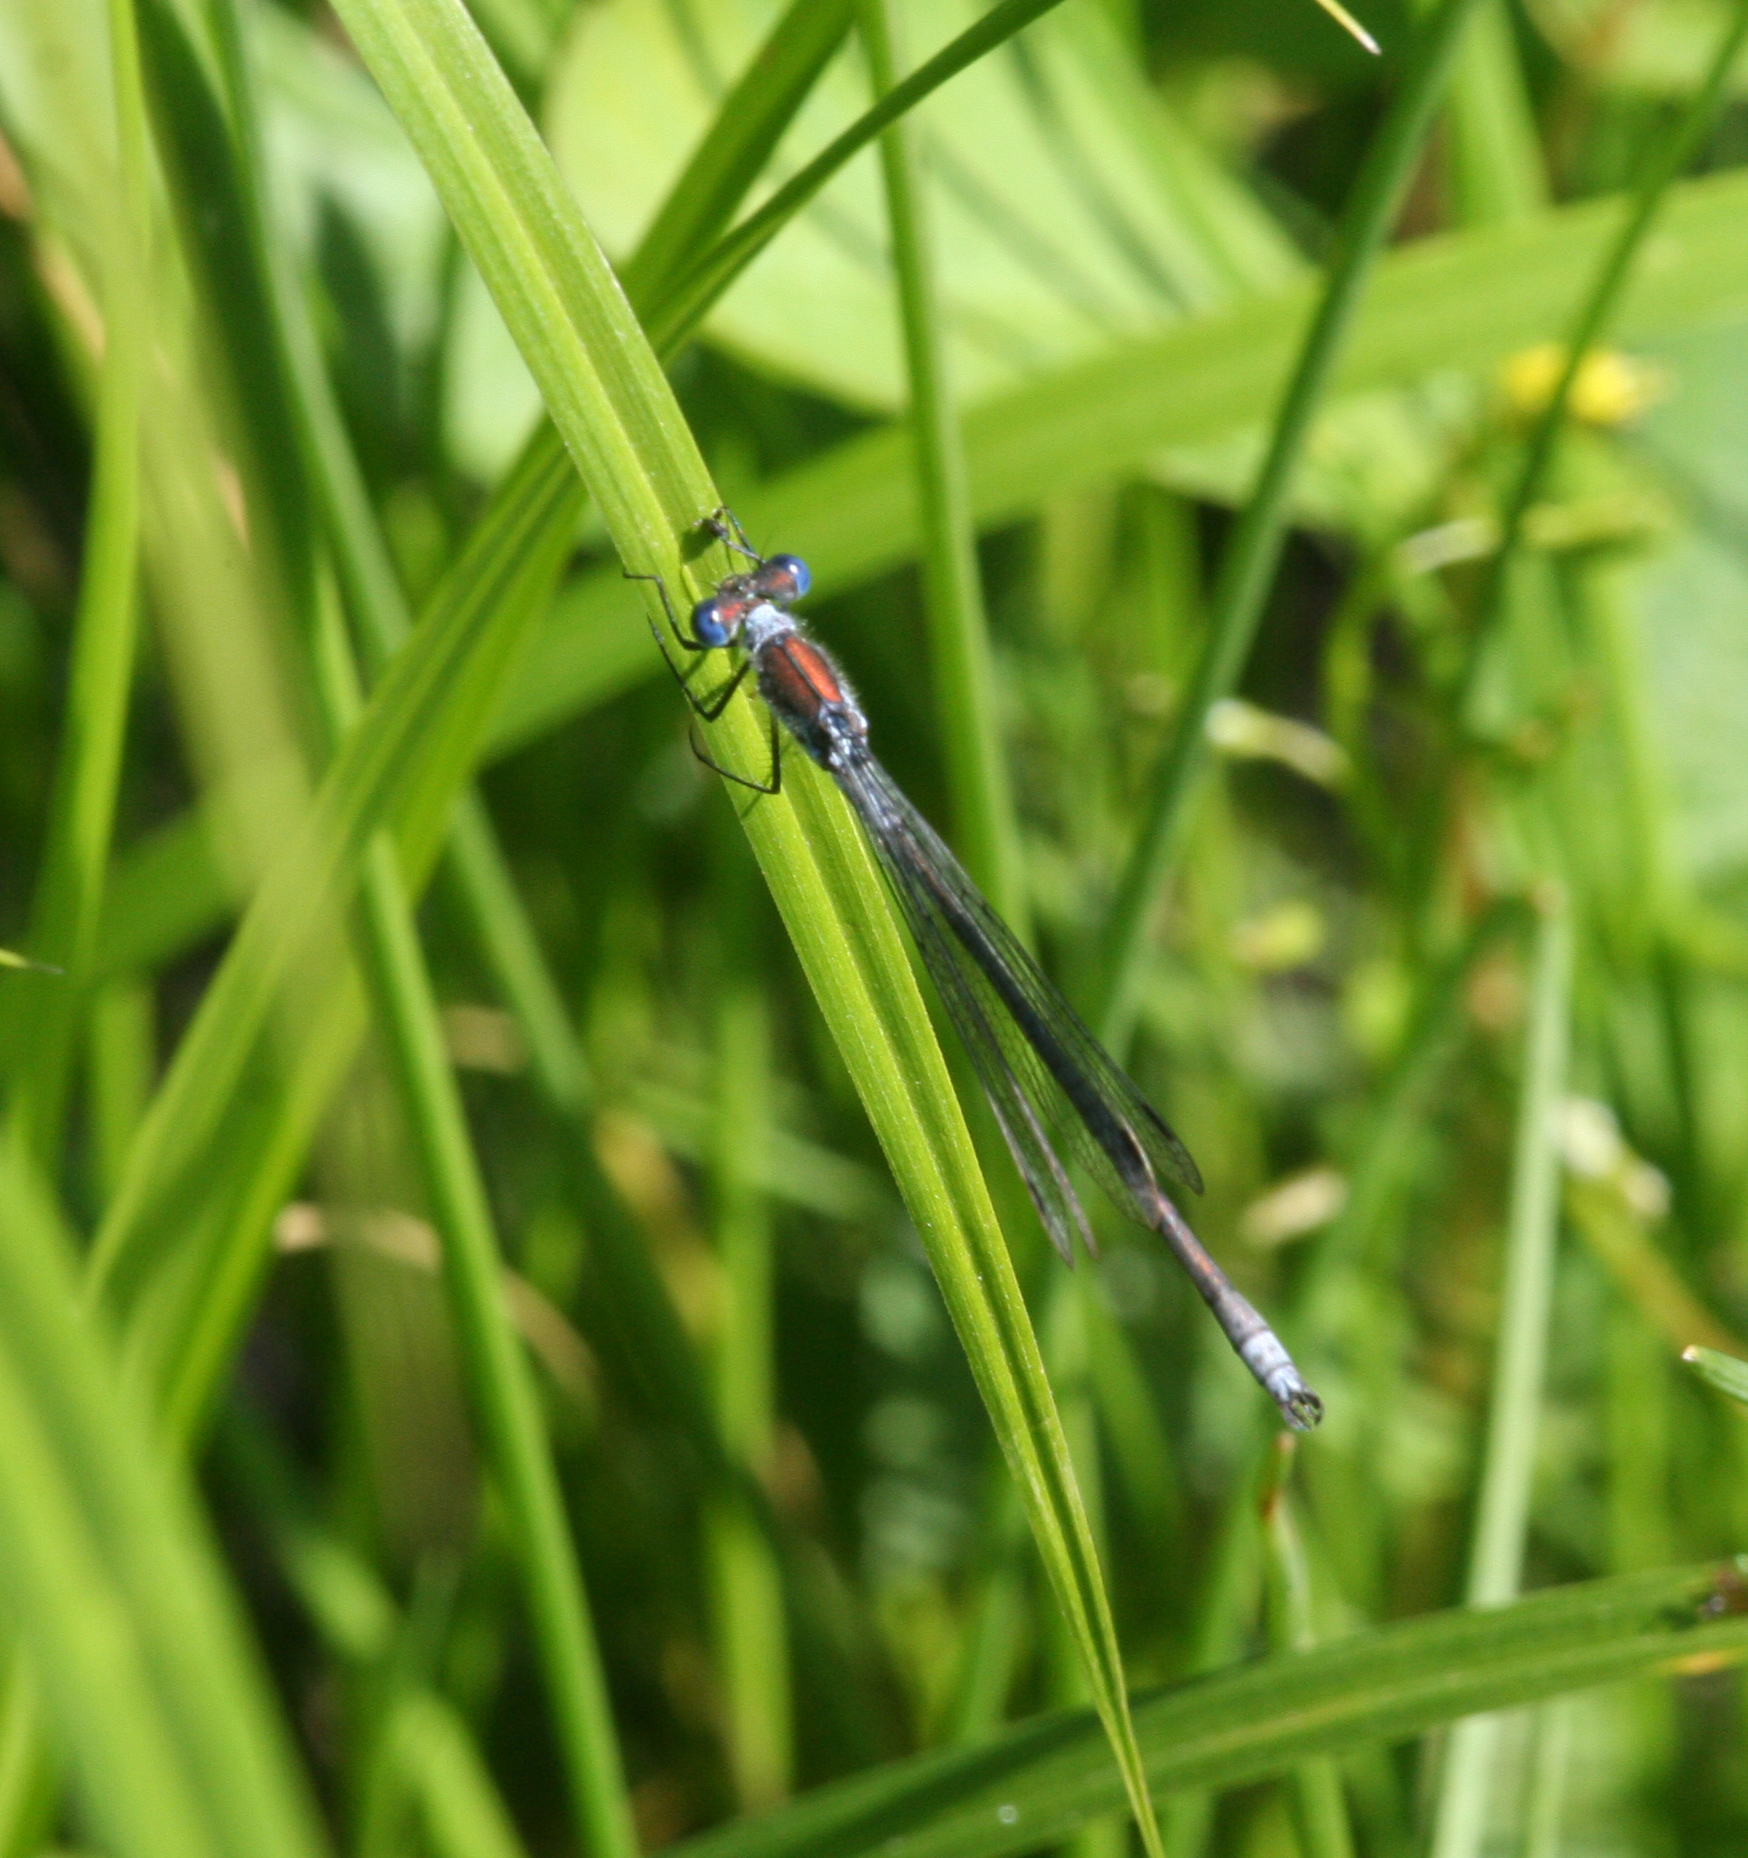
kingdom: Animalia
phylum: Arthropoda
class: Insecta
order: Odonata
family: Lestidae
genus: Lestes
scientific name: Lestes sponsa
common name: Common spreadwing
